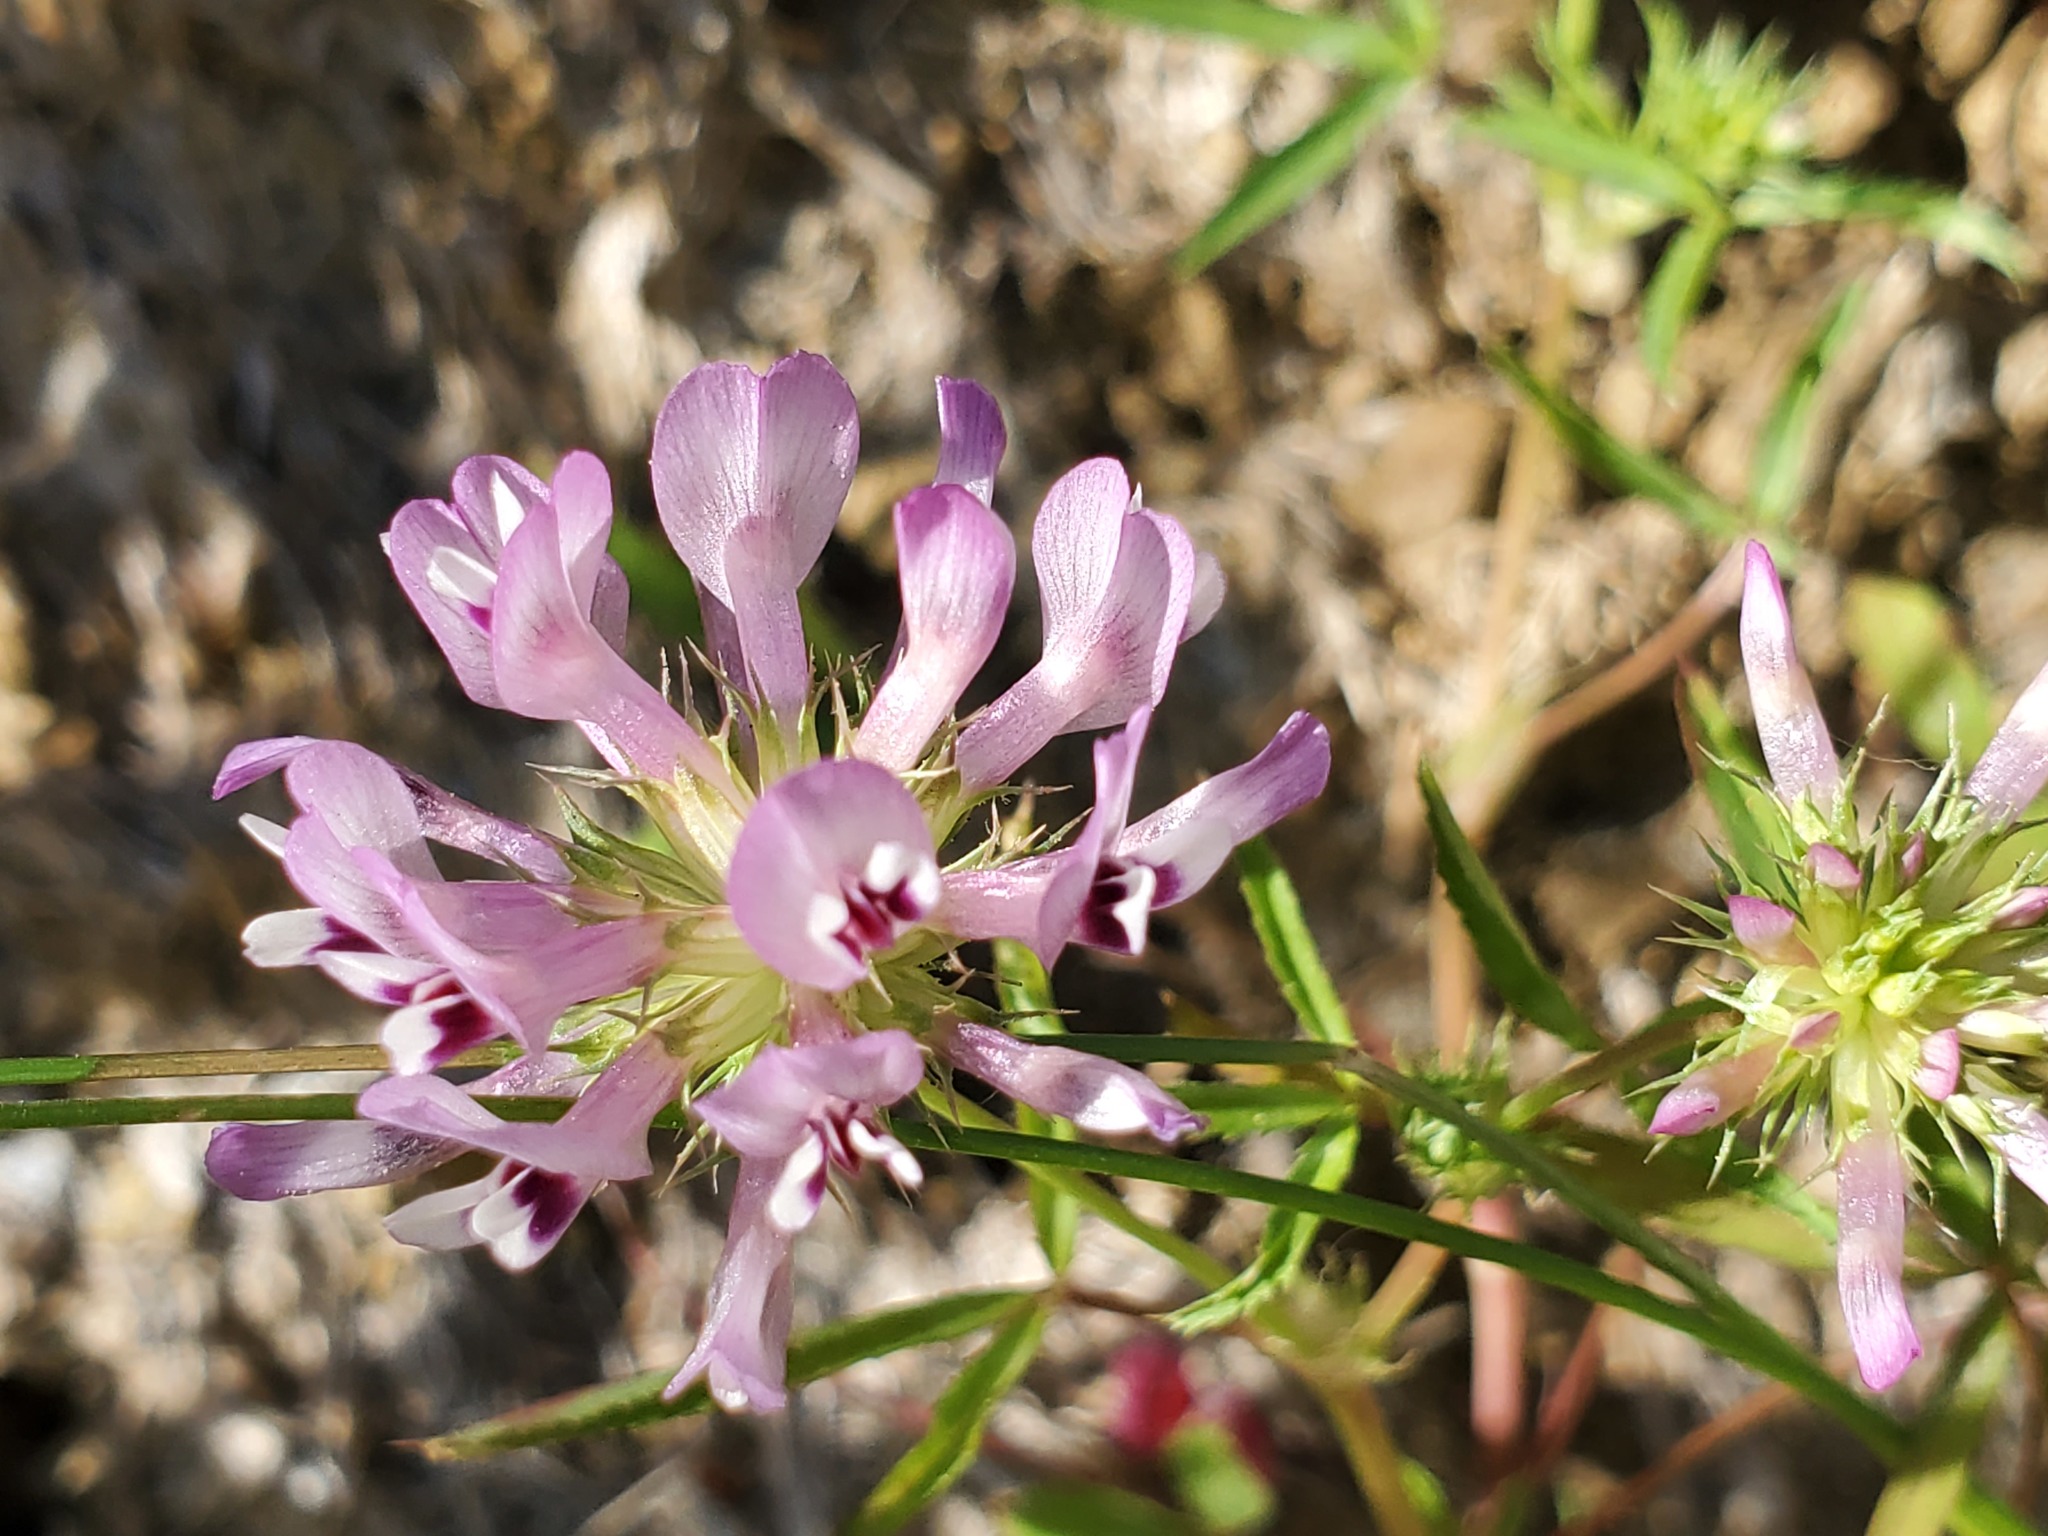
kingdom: Plantae
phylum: Tracheophyta
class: Magnoliopsida
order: Fabales
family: Fabaceae
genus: Trifolium
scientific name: Trifolium willdenovii
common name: Tomcat clover
